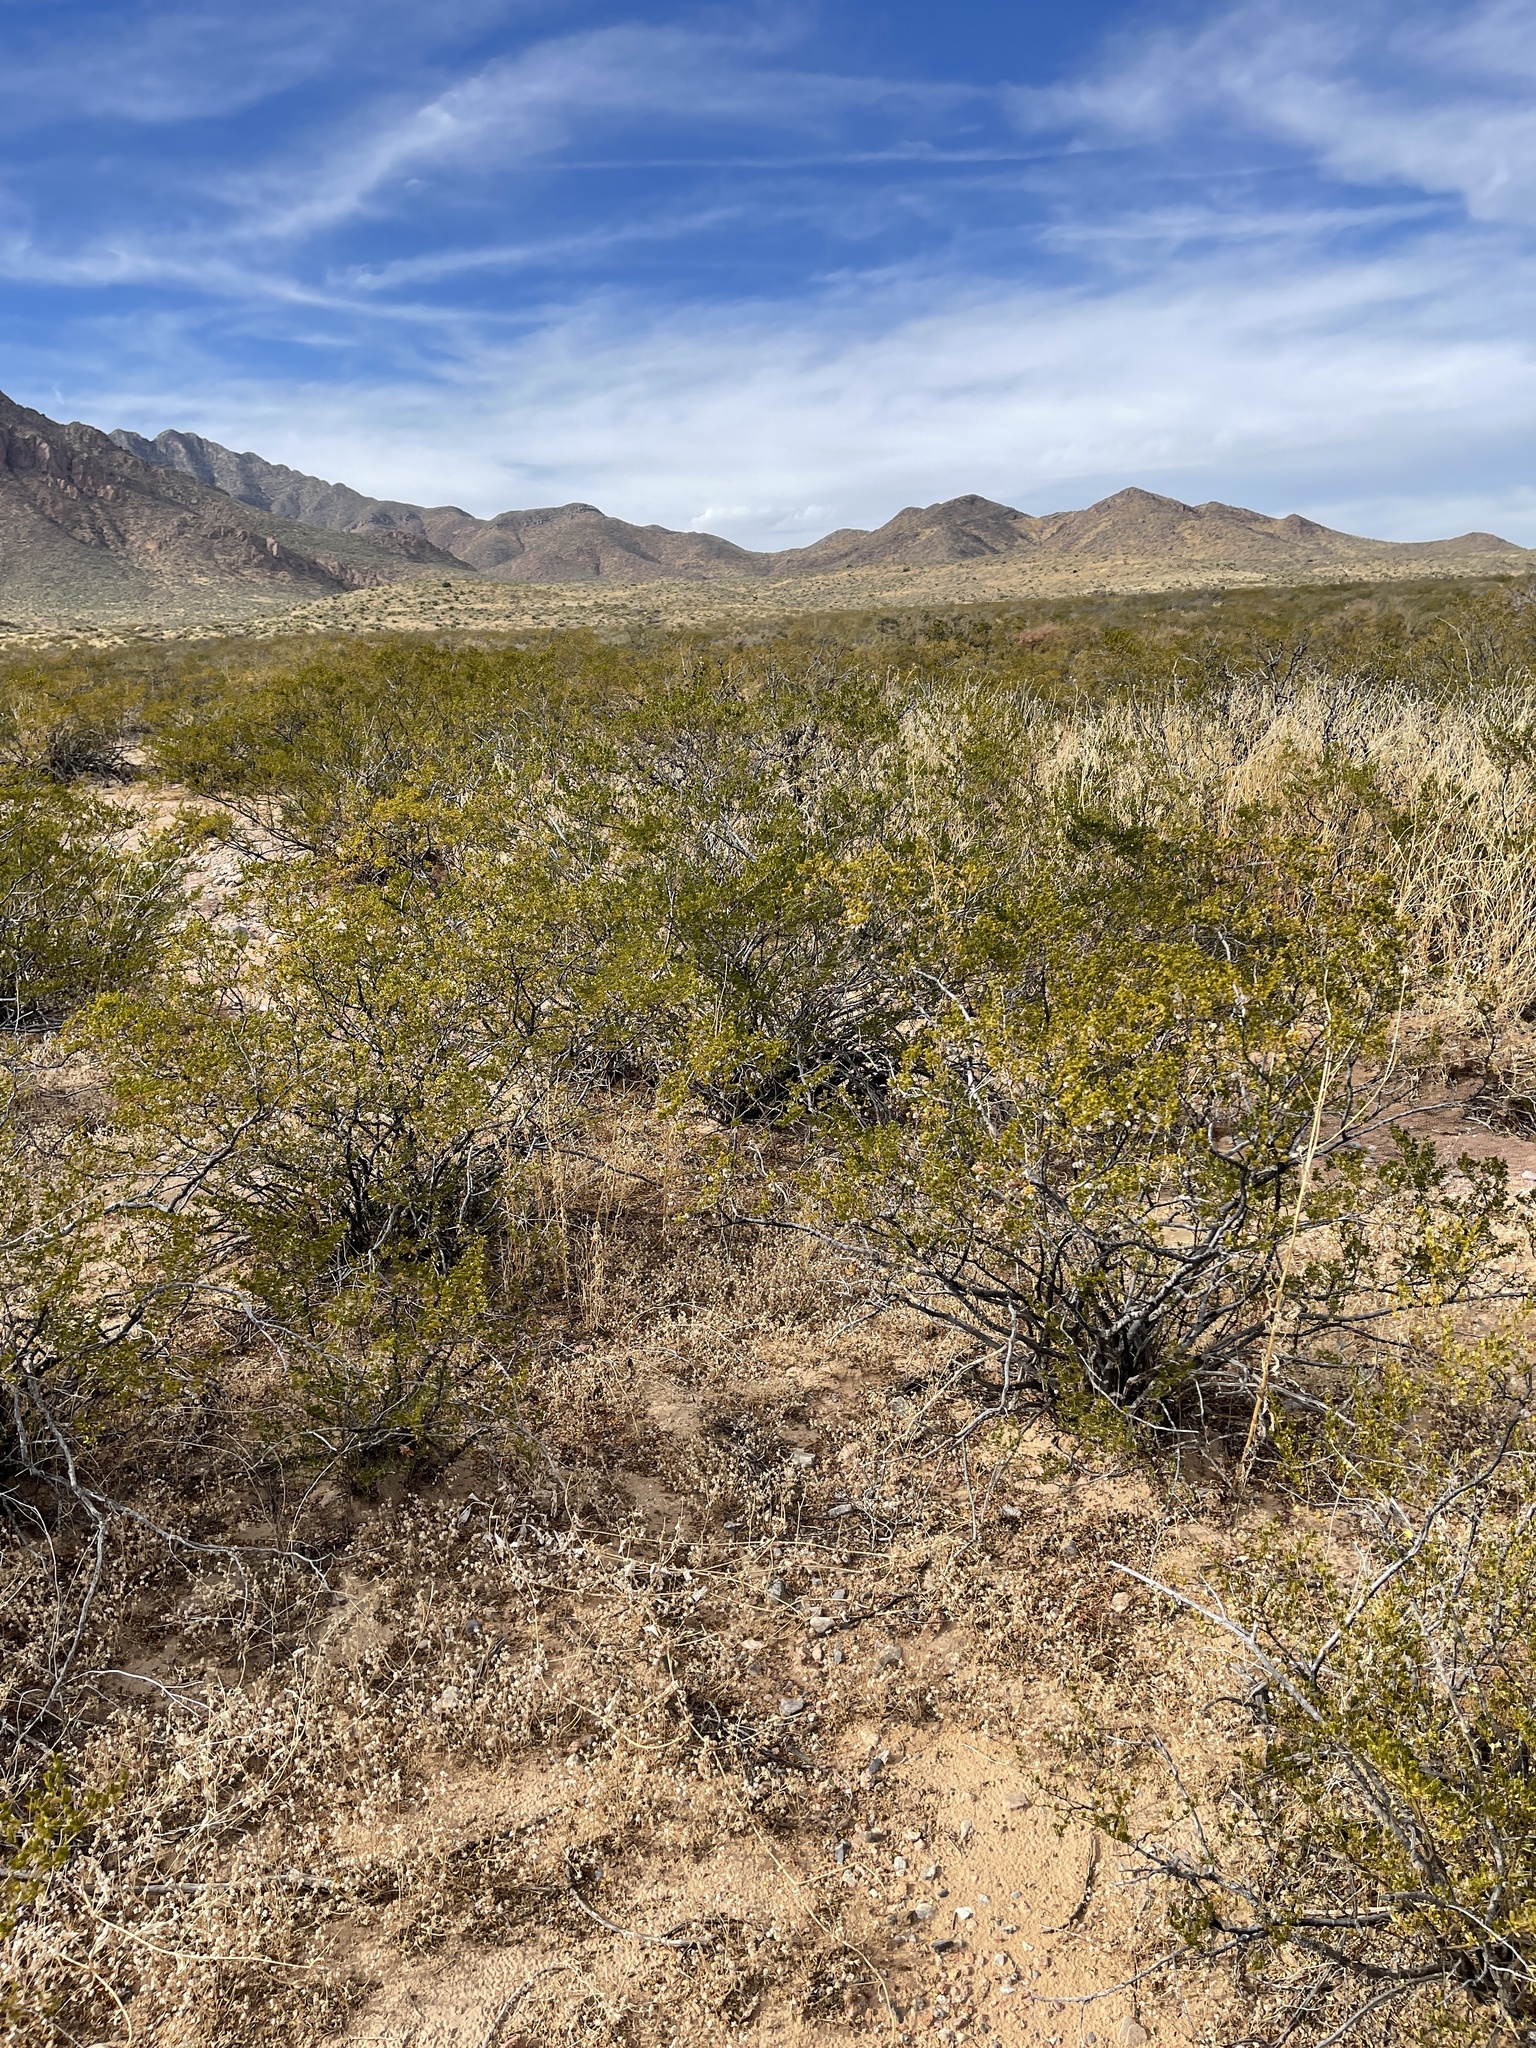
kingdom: Plantae
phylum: Tracheophyta
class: Magnoliopsida
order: Zygophyllales
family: Zygophyllaceae
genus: Larrea
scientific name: Larrea tridentata
